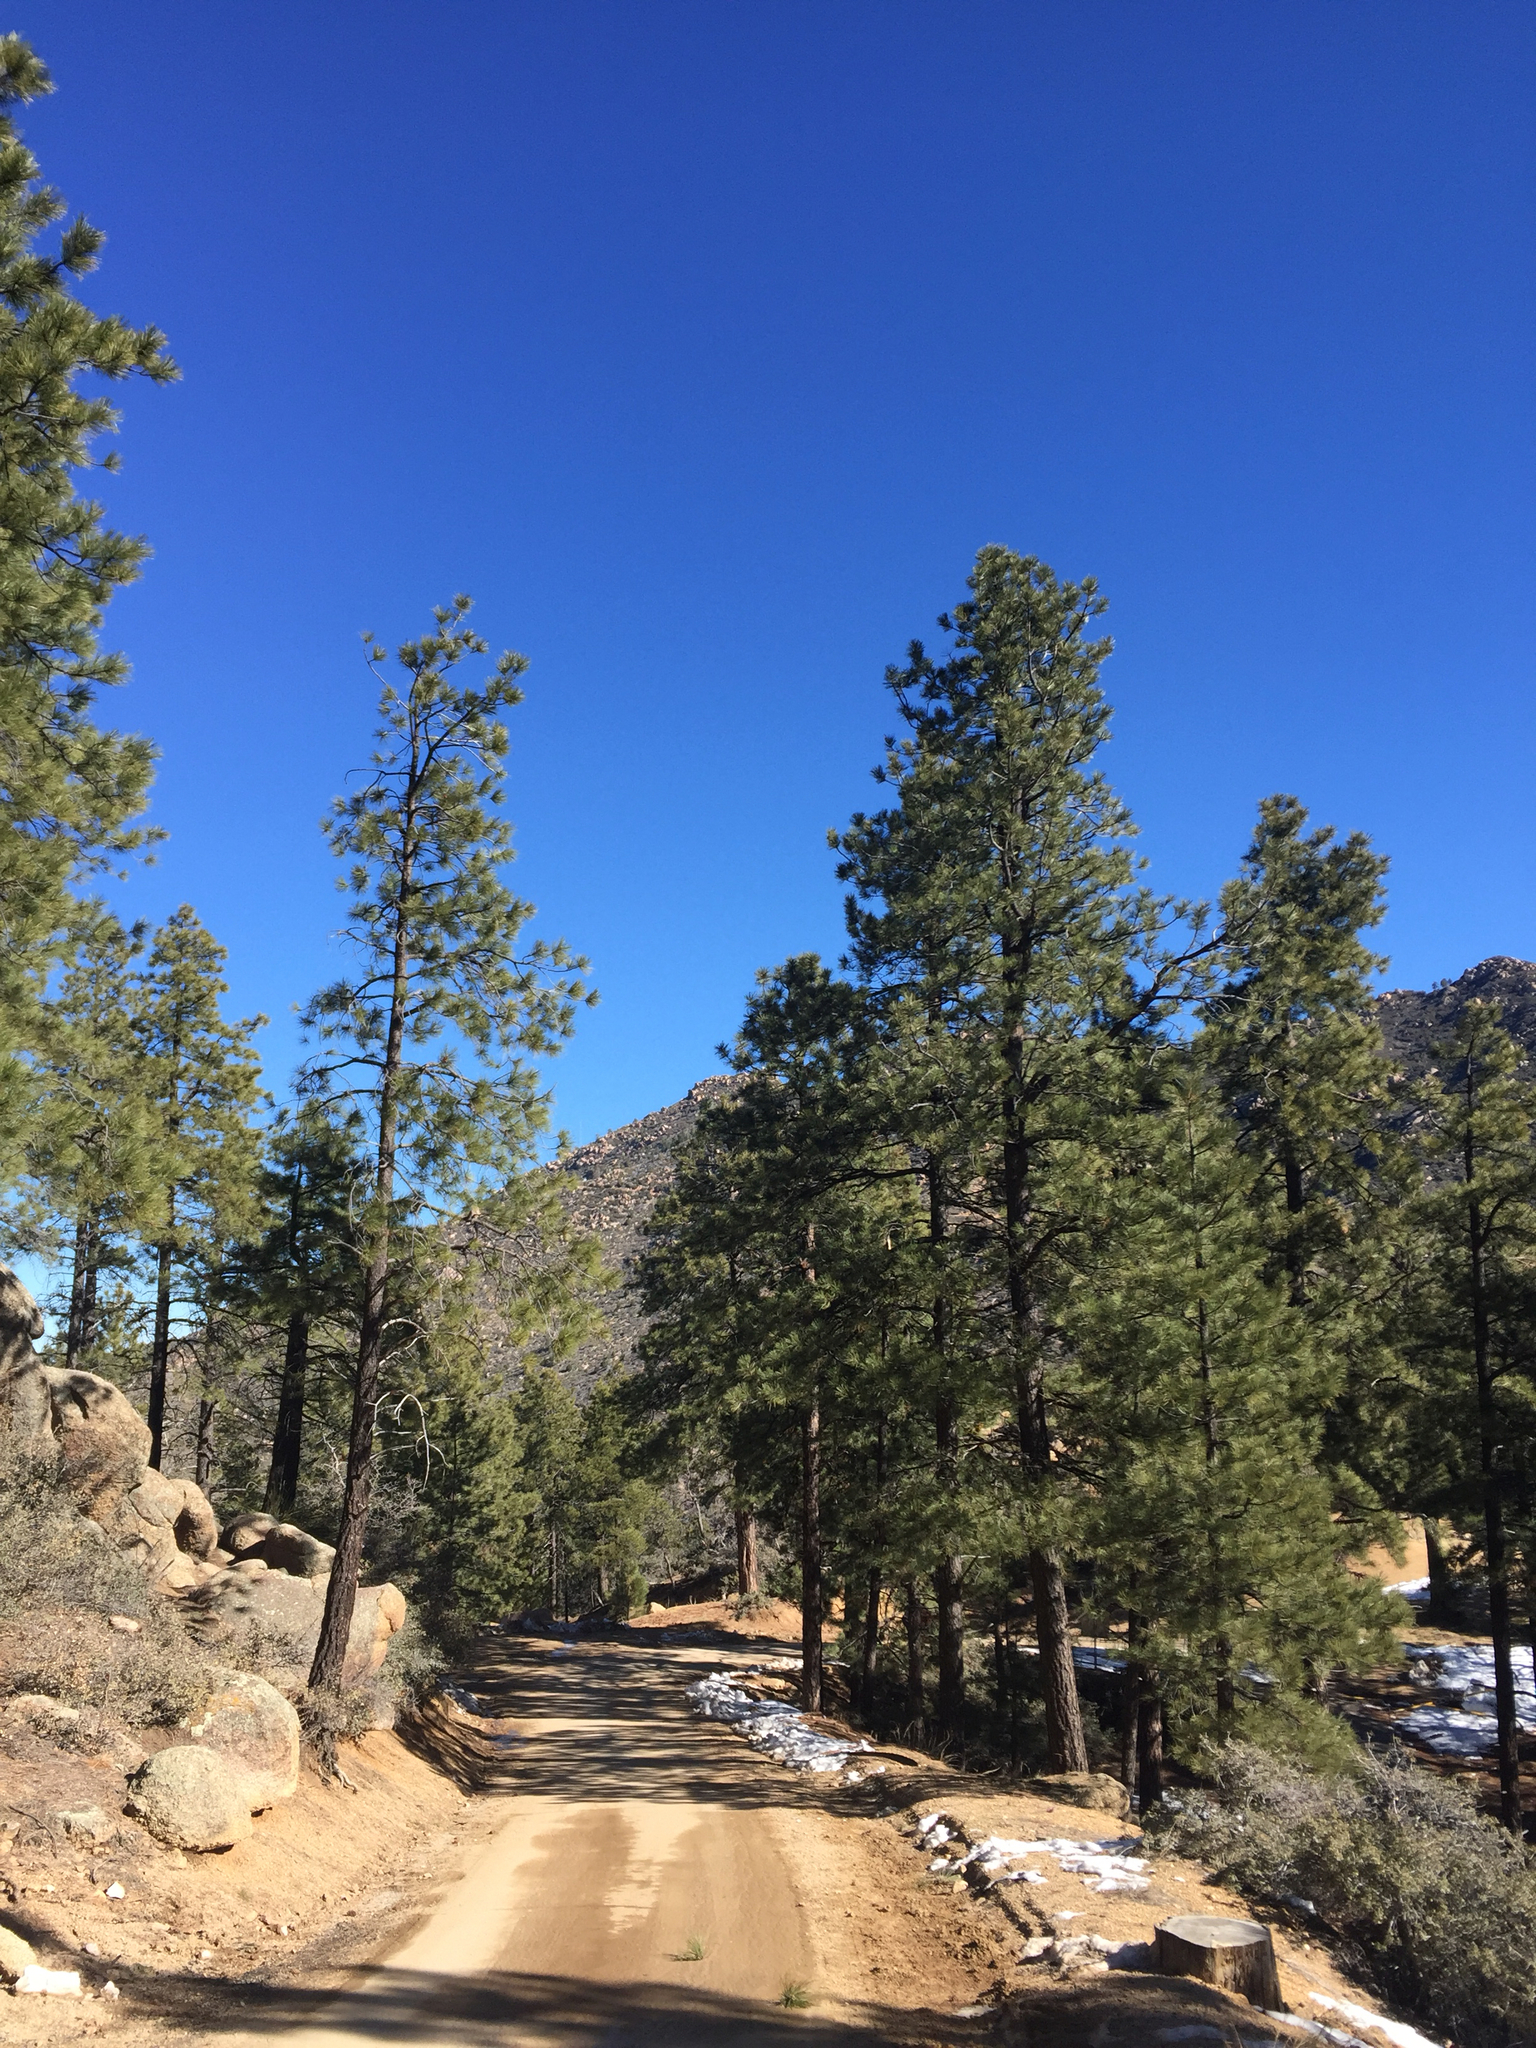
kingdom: Plantae
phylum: Tracheophyta
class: Pinopsida
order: Pinales
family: Pinaceae
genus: Pinus
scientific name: Pinus ponderosa
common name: Western yellow-pine
